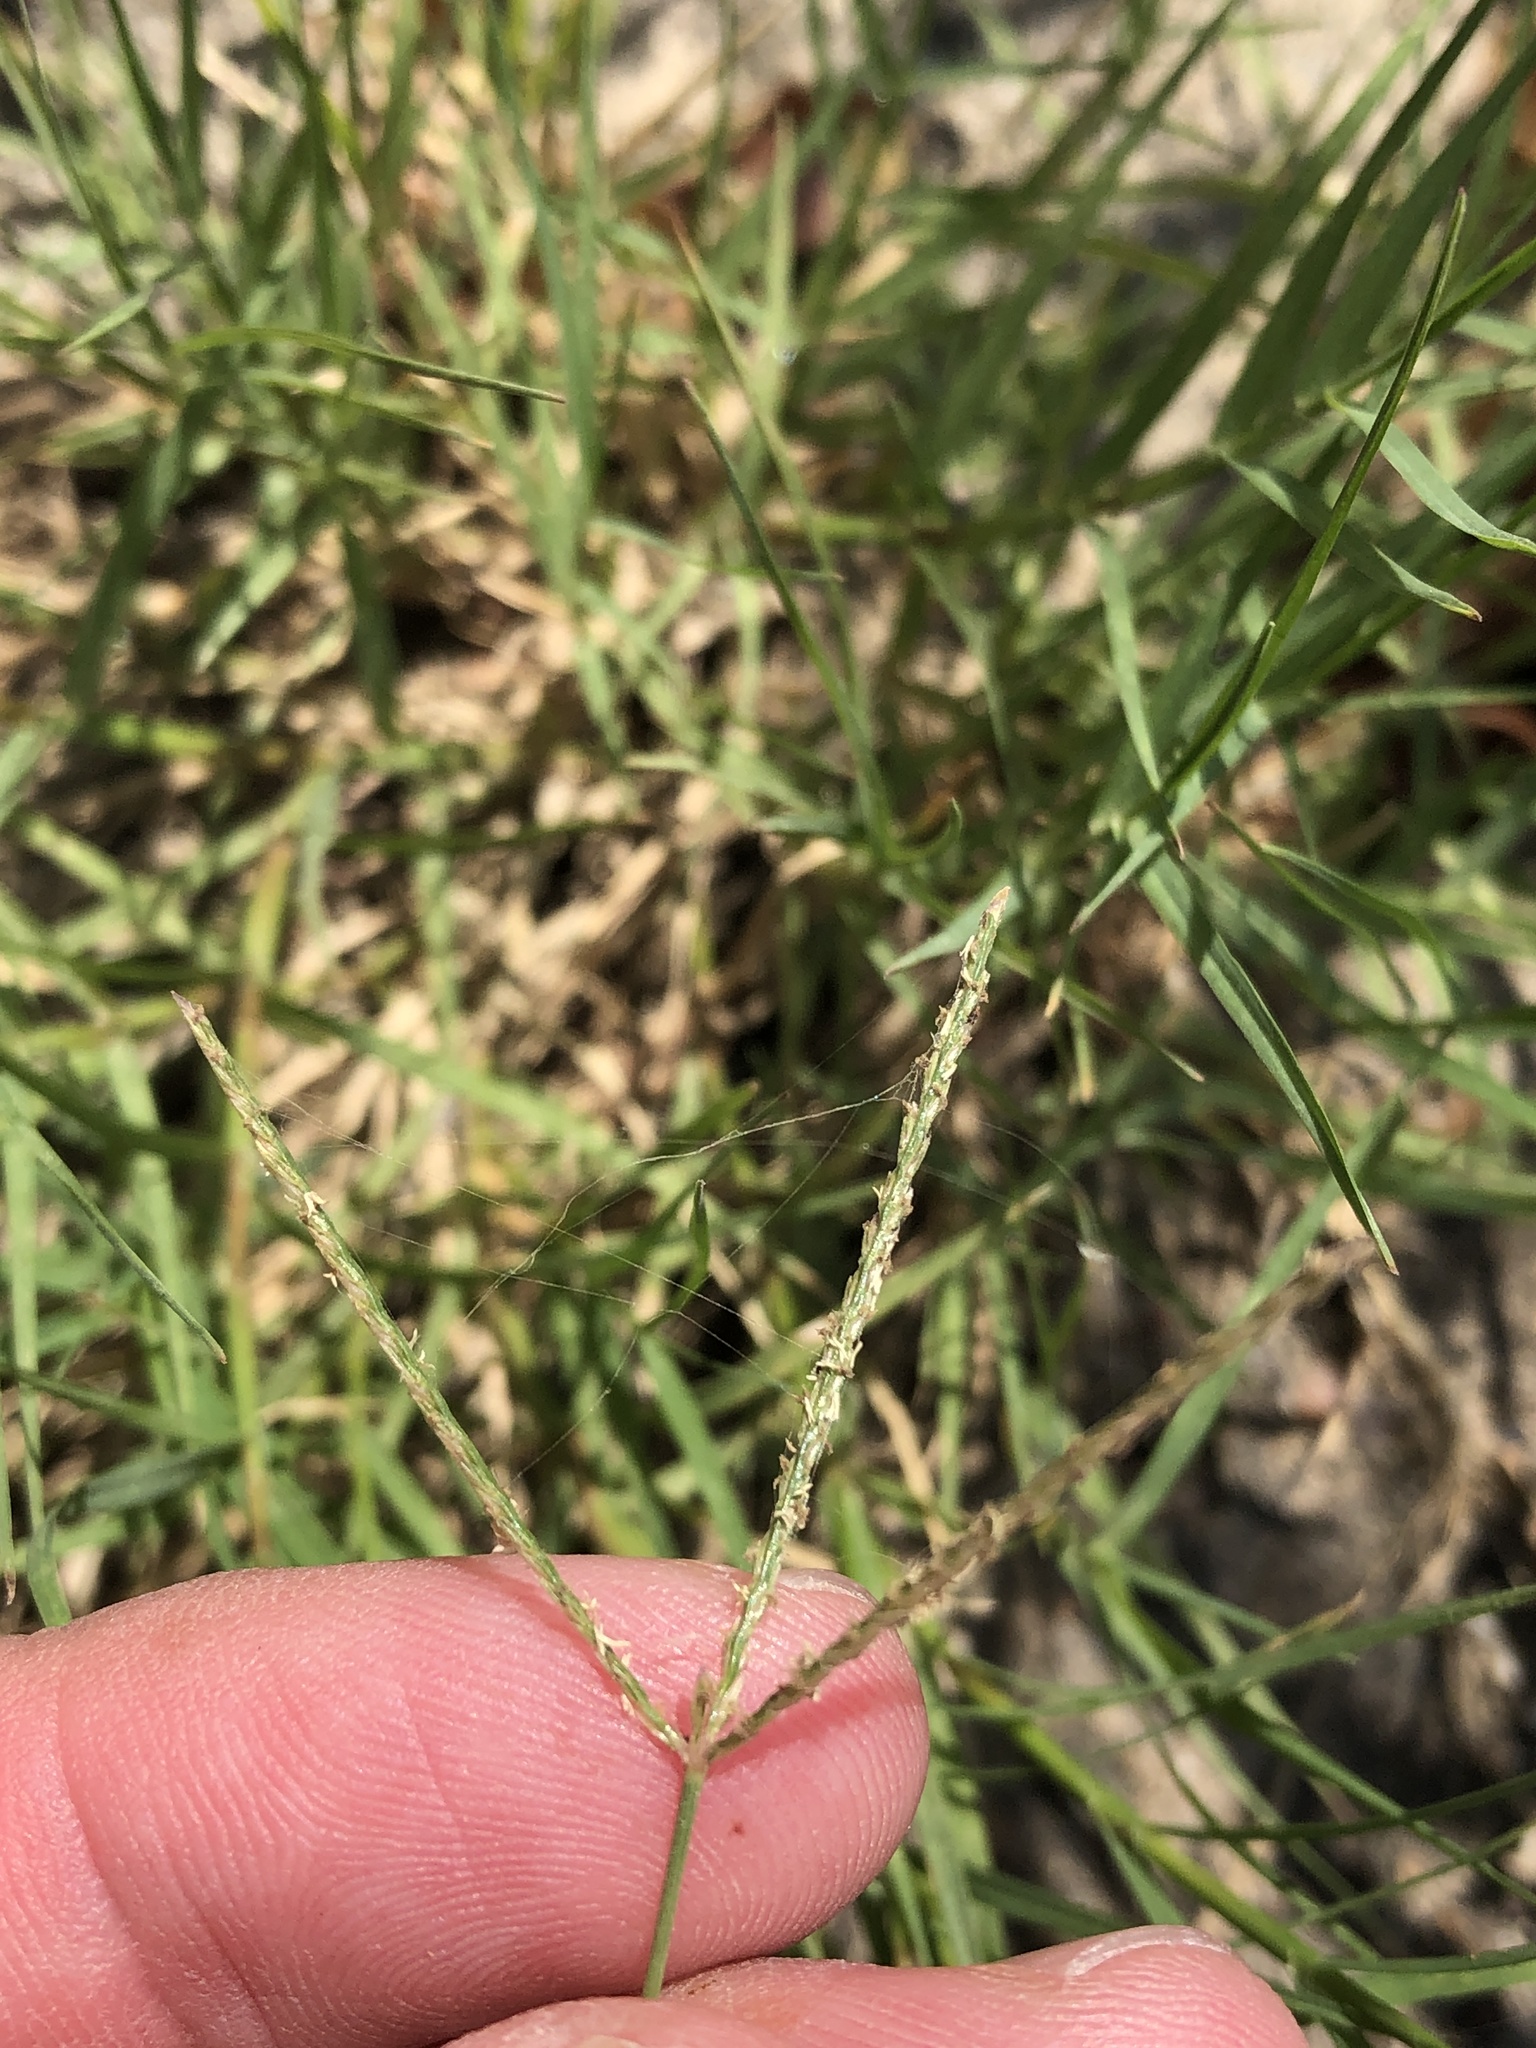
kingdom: Plantae
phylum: Tracheophyta
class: Liliopsida
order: Poales
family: Poaceae
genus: Cynodon
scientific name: Cynodon dactylon
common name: Bermuda grass
